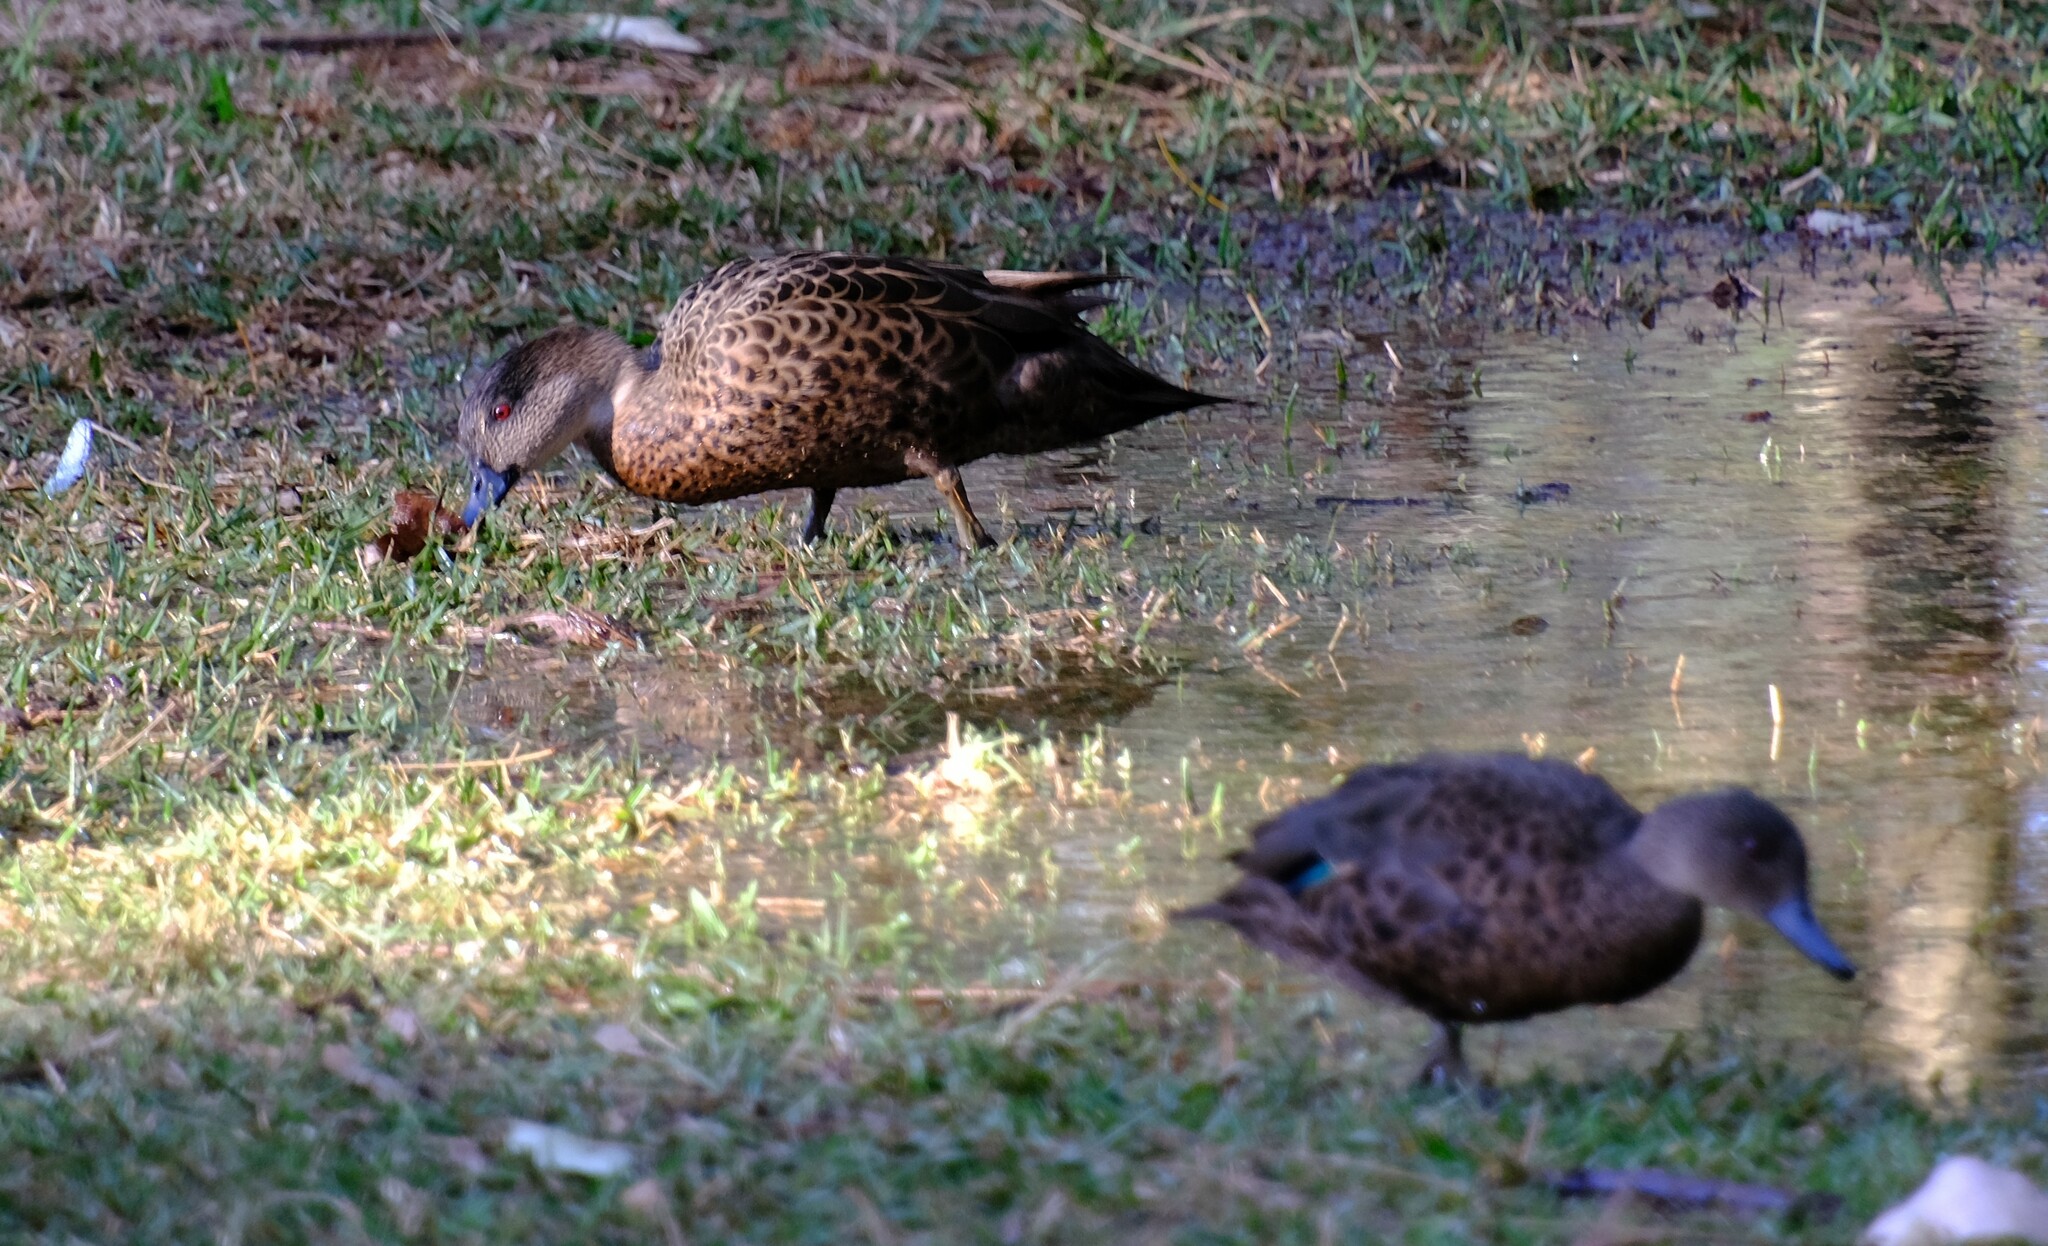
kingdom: Animalia
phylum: Chordata
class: Aves
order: Anseriformes
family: Anatidae
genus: Anas
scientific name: Anas castanea
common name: Chestnut teal
